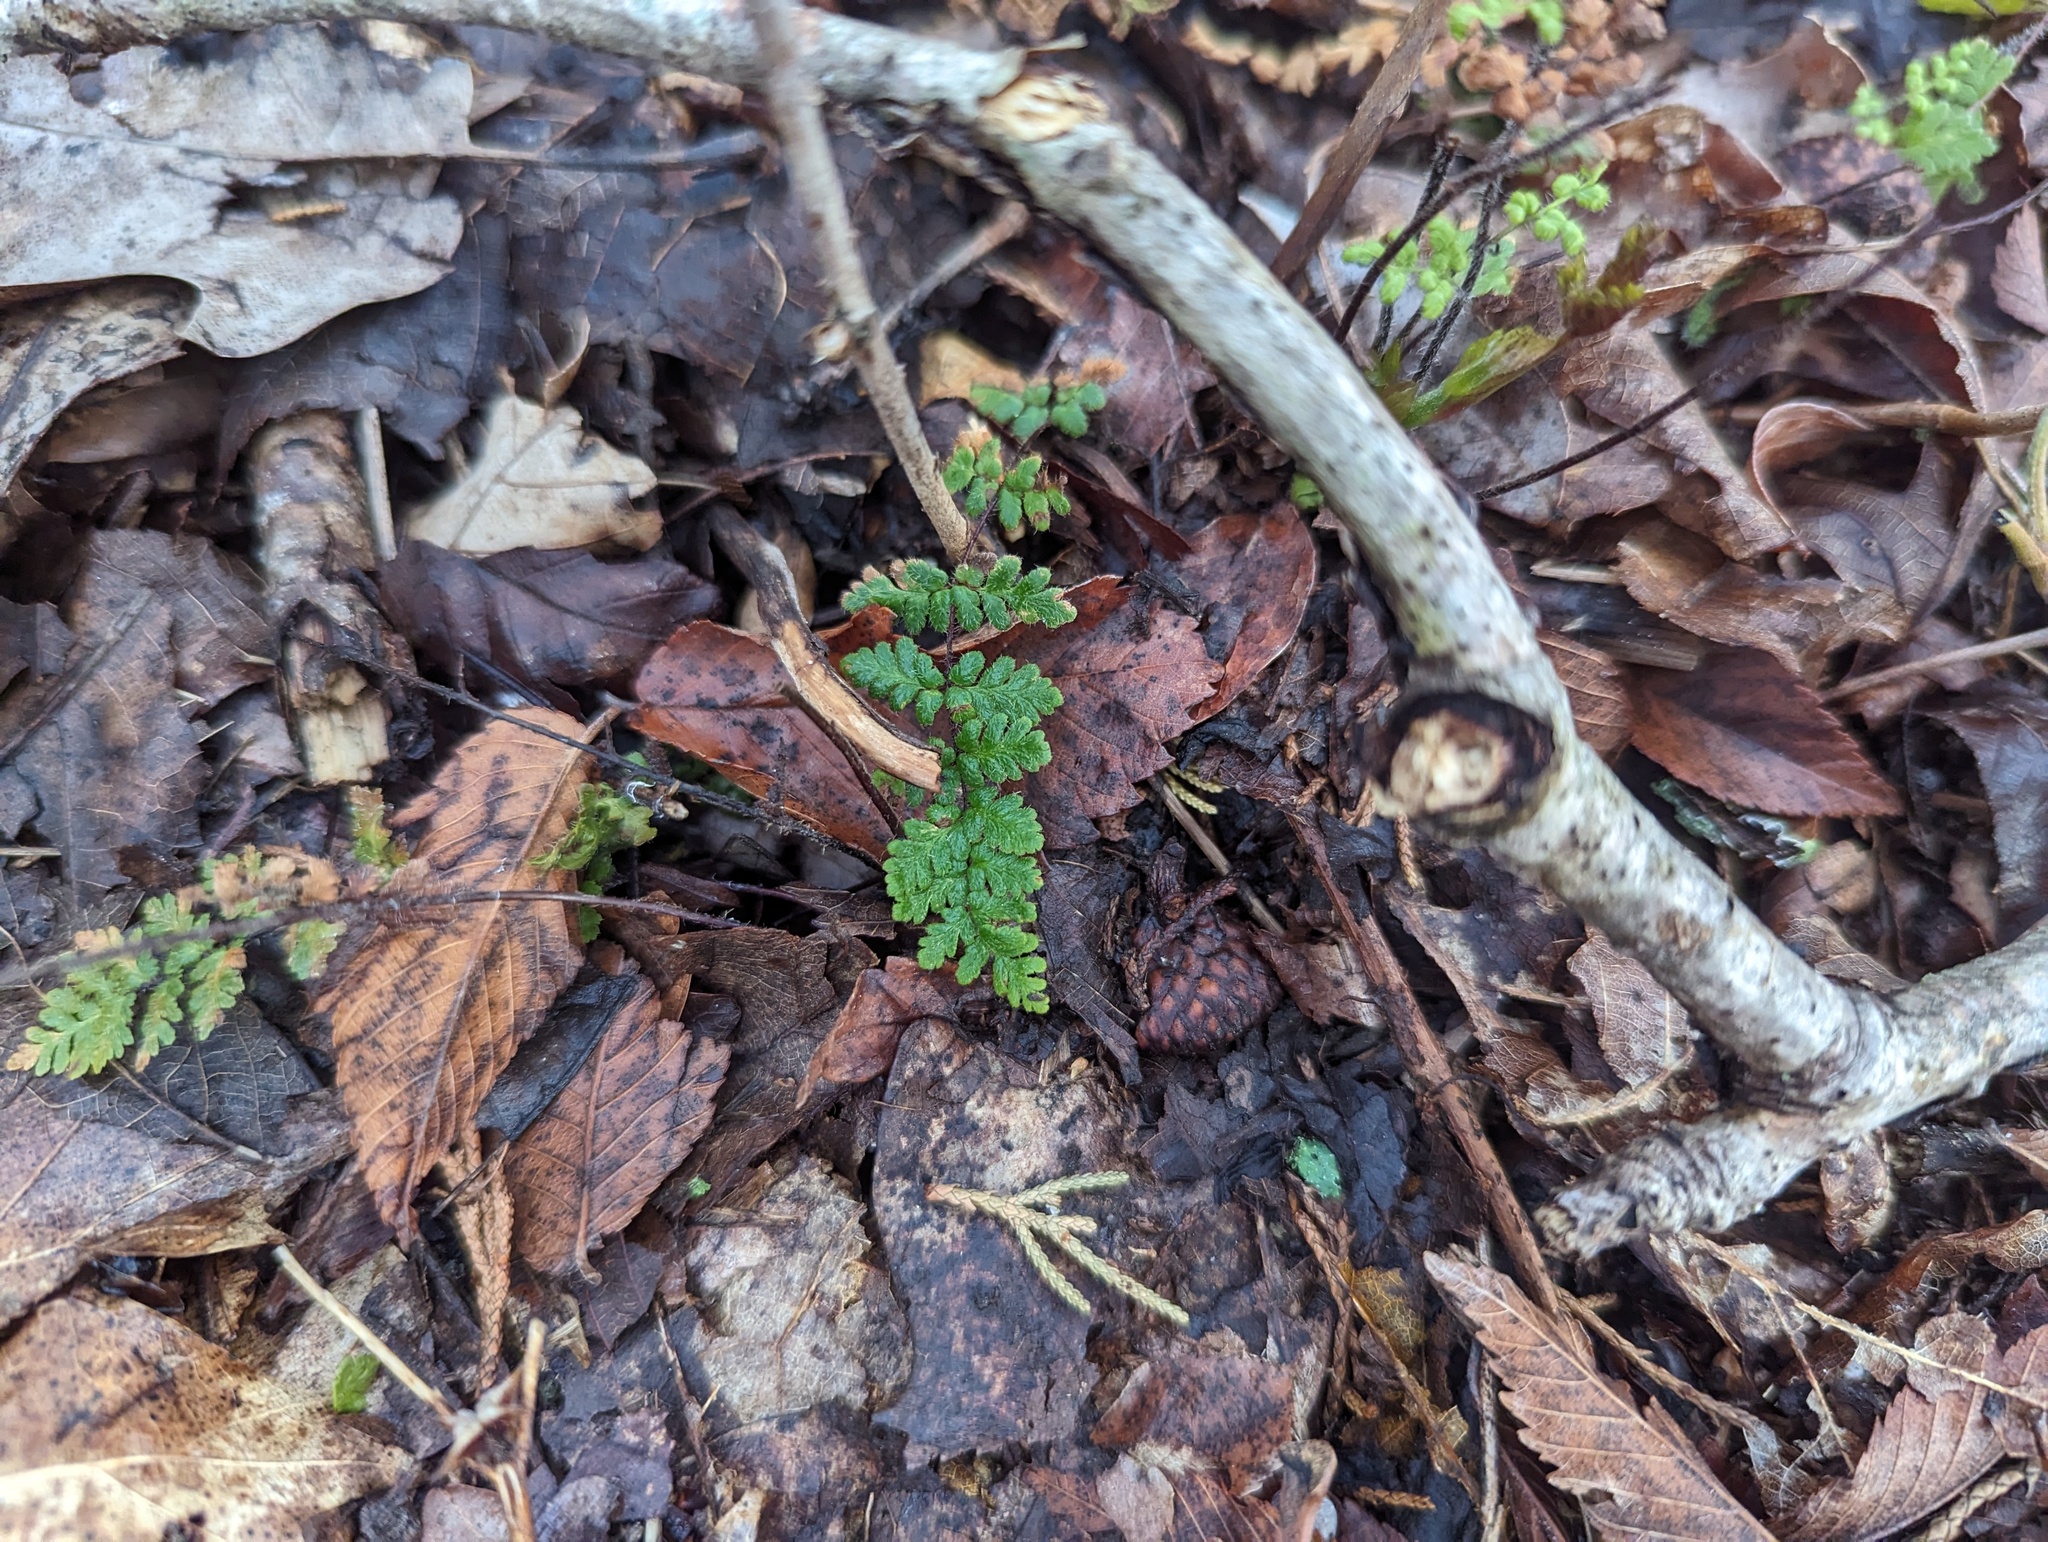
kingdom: Plantae
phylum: Tracheophyta
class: Polypodiopsida
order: Polypodiales
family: Pteridaceae
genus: Myriopteris
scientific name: Myriopteris lanosa
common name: Hairy lip fern
